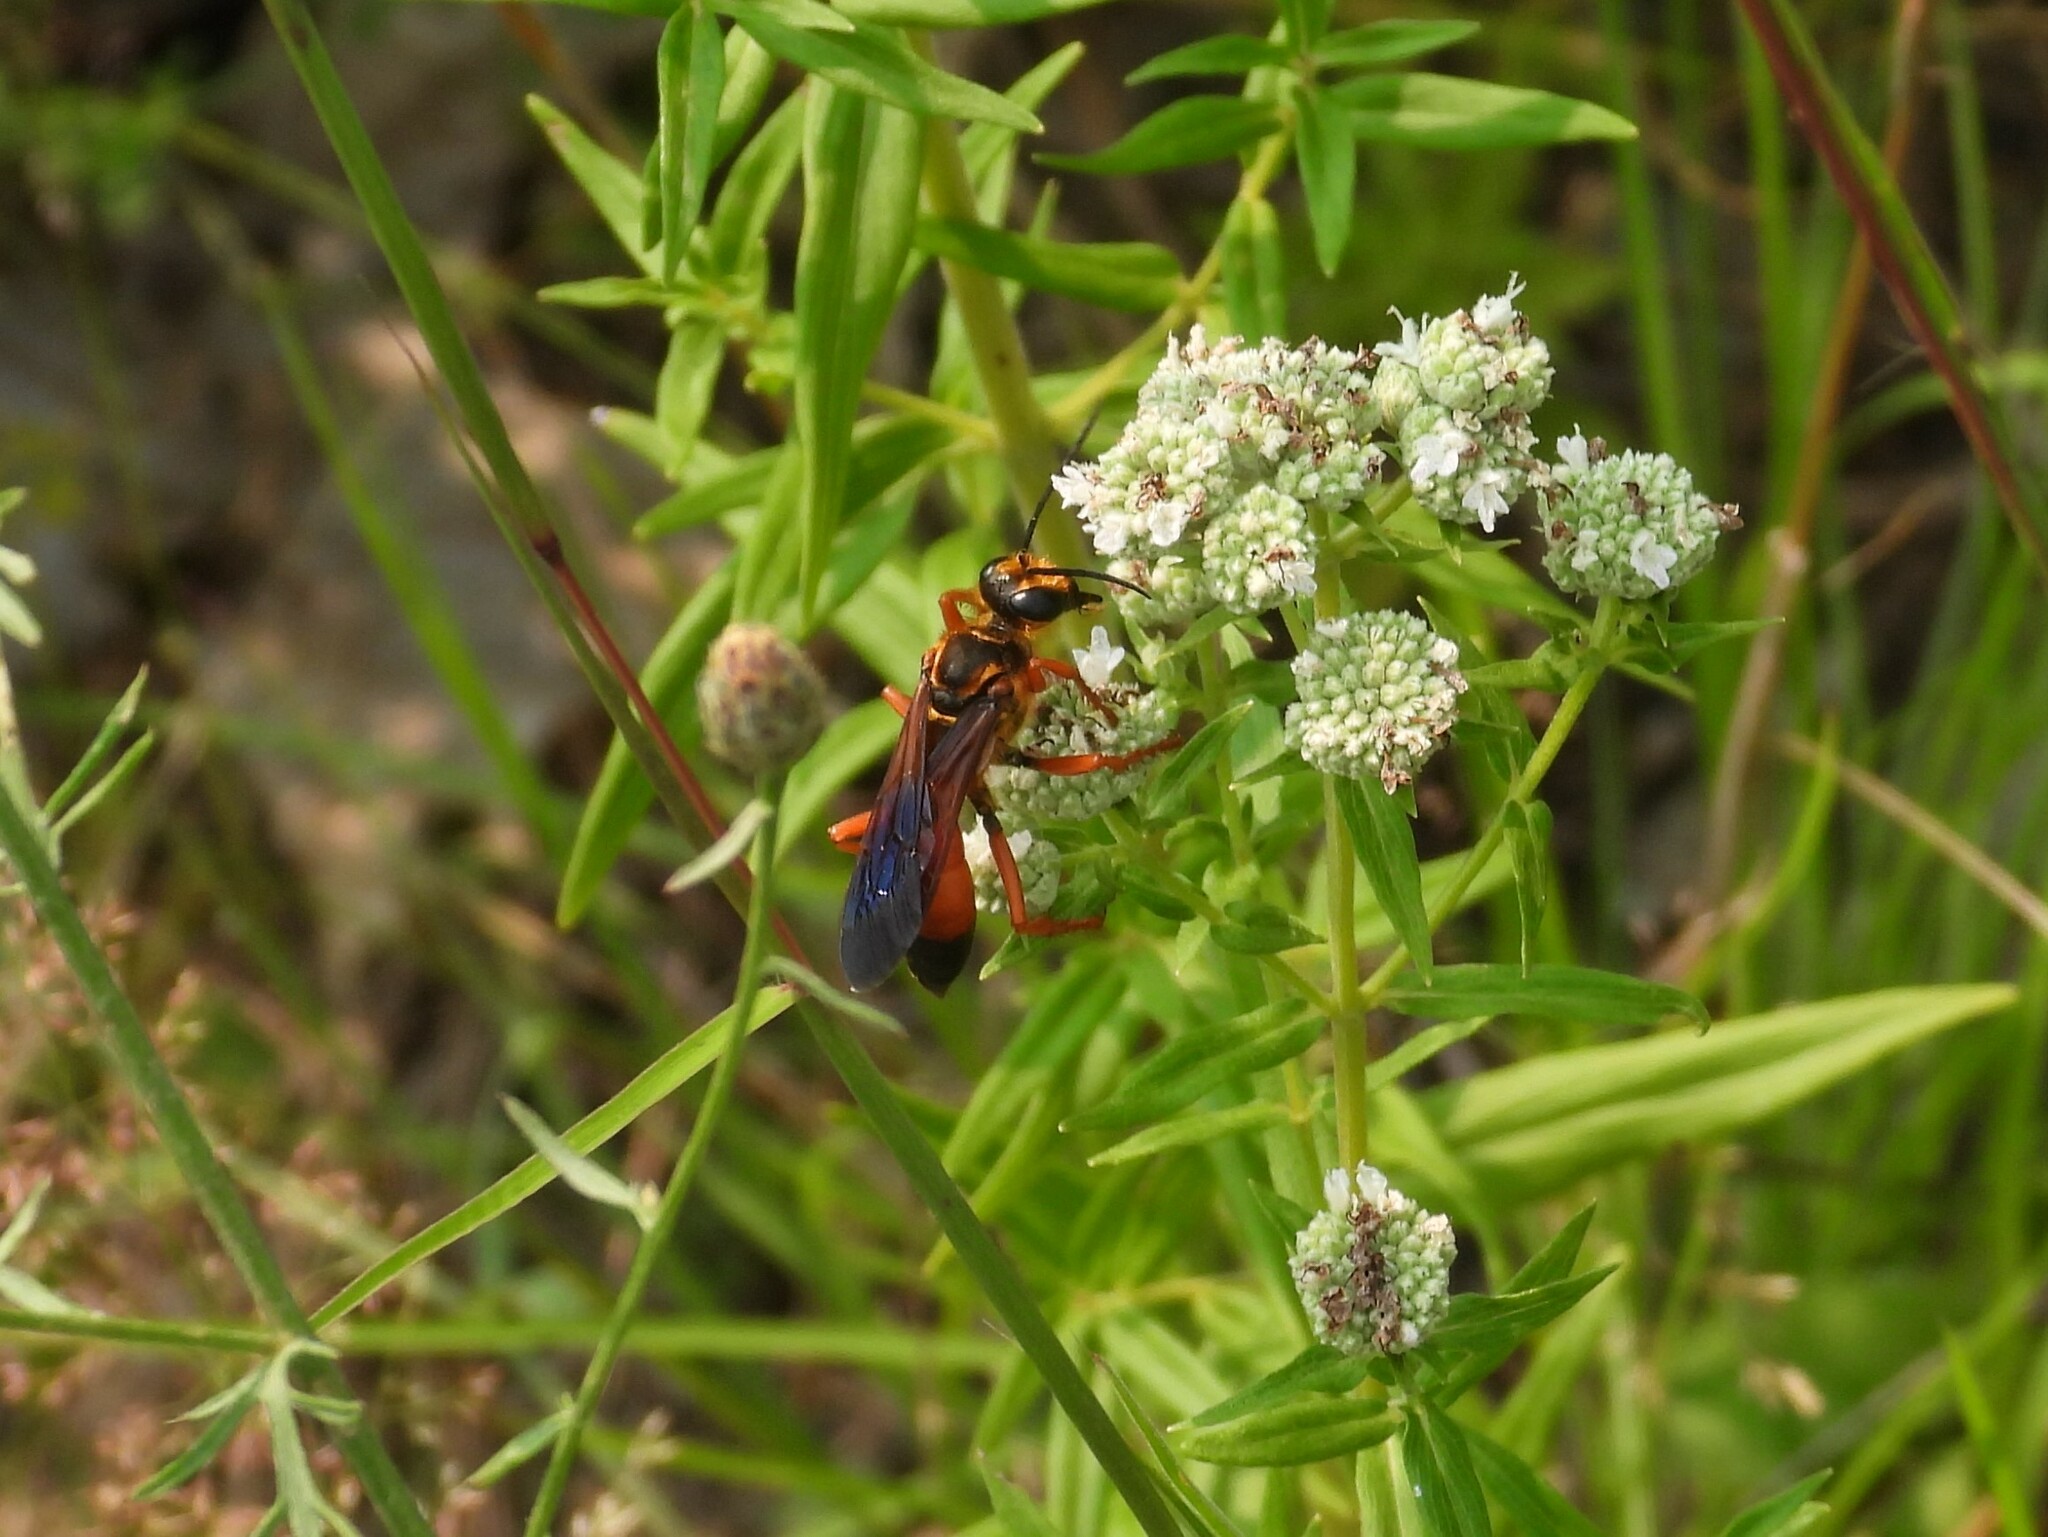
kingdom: Animalia
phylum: Arthropoda
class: Insecta
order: Hymenoptera
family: Sphecidae
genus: Sphex
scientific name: Sphex ichneumoneus
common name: Great golden digger wasp
